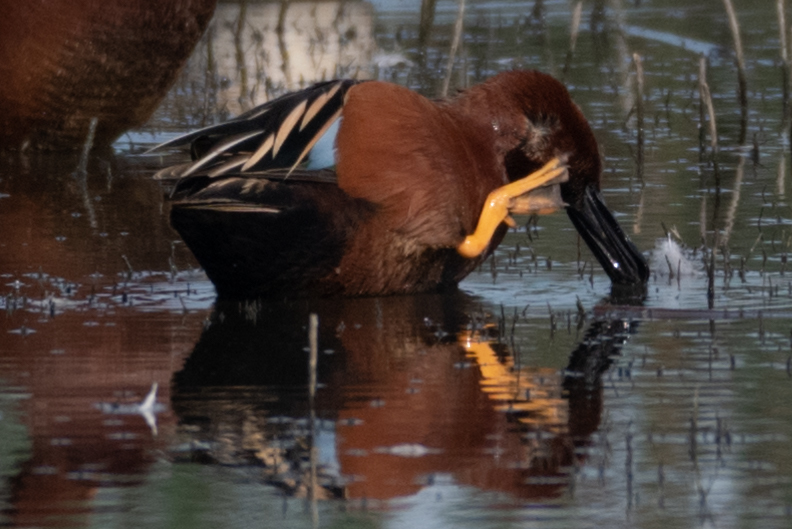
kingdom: Animalia
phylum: Chordata
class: Aves
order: Anseriformes
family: Anatidae
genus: Spatula
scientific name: Spatula cyanoptera
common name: Cinnamon teal
